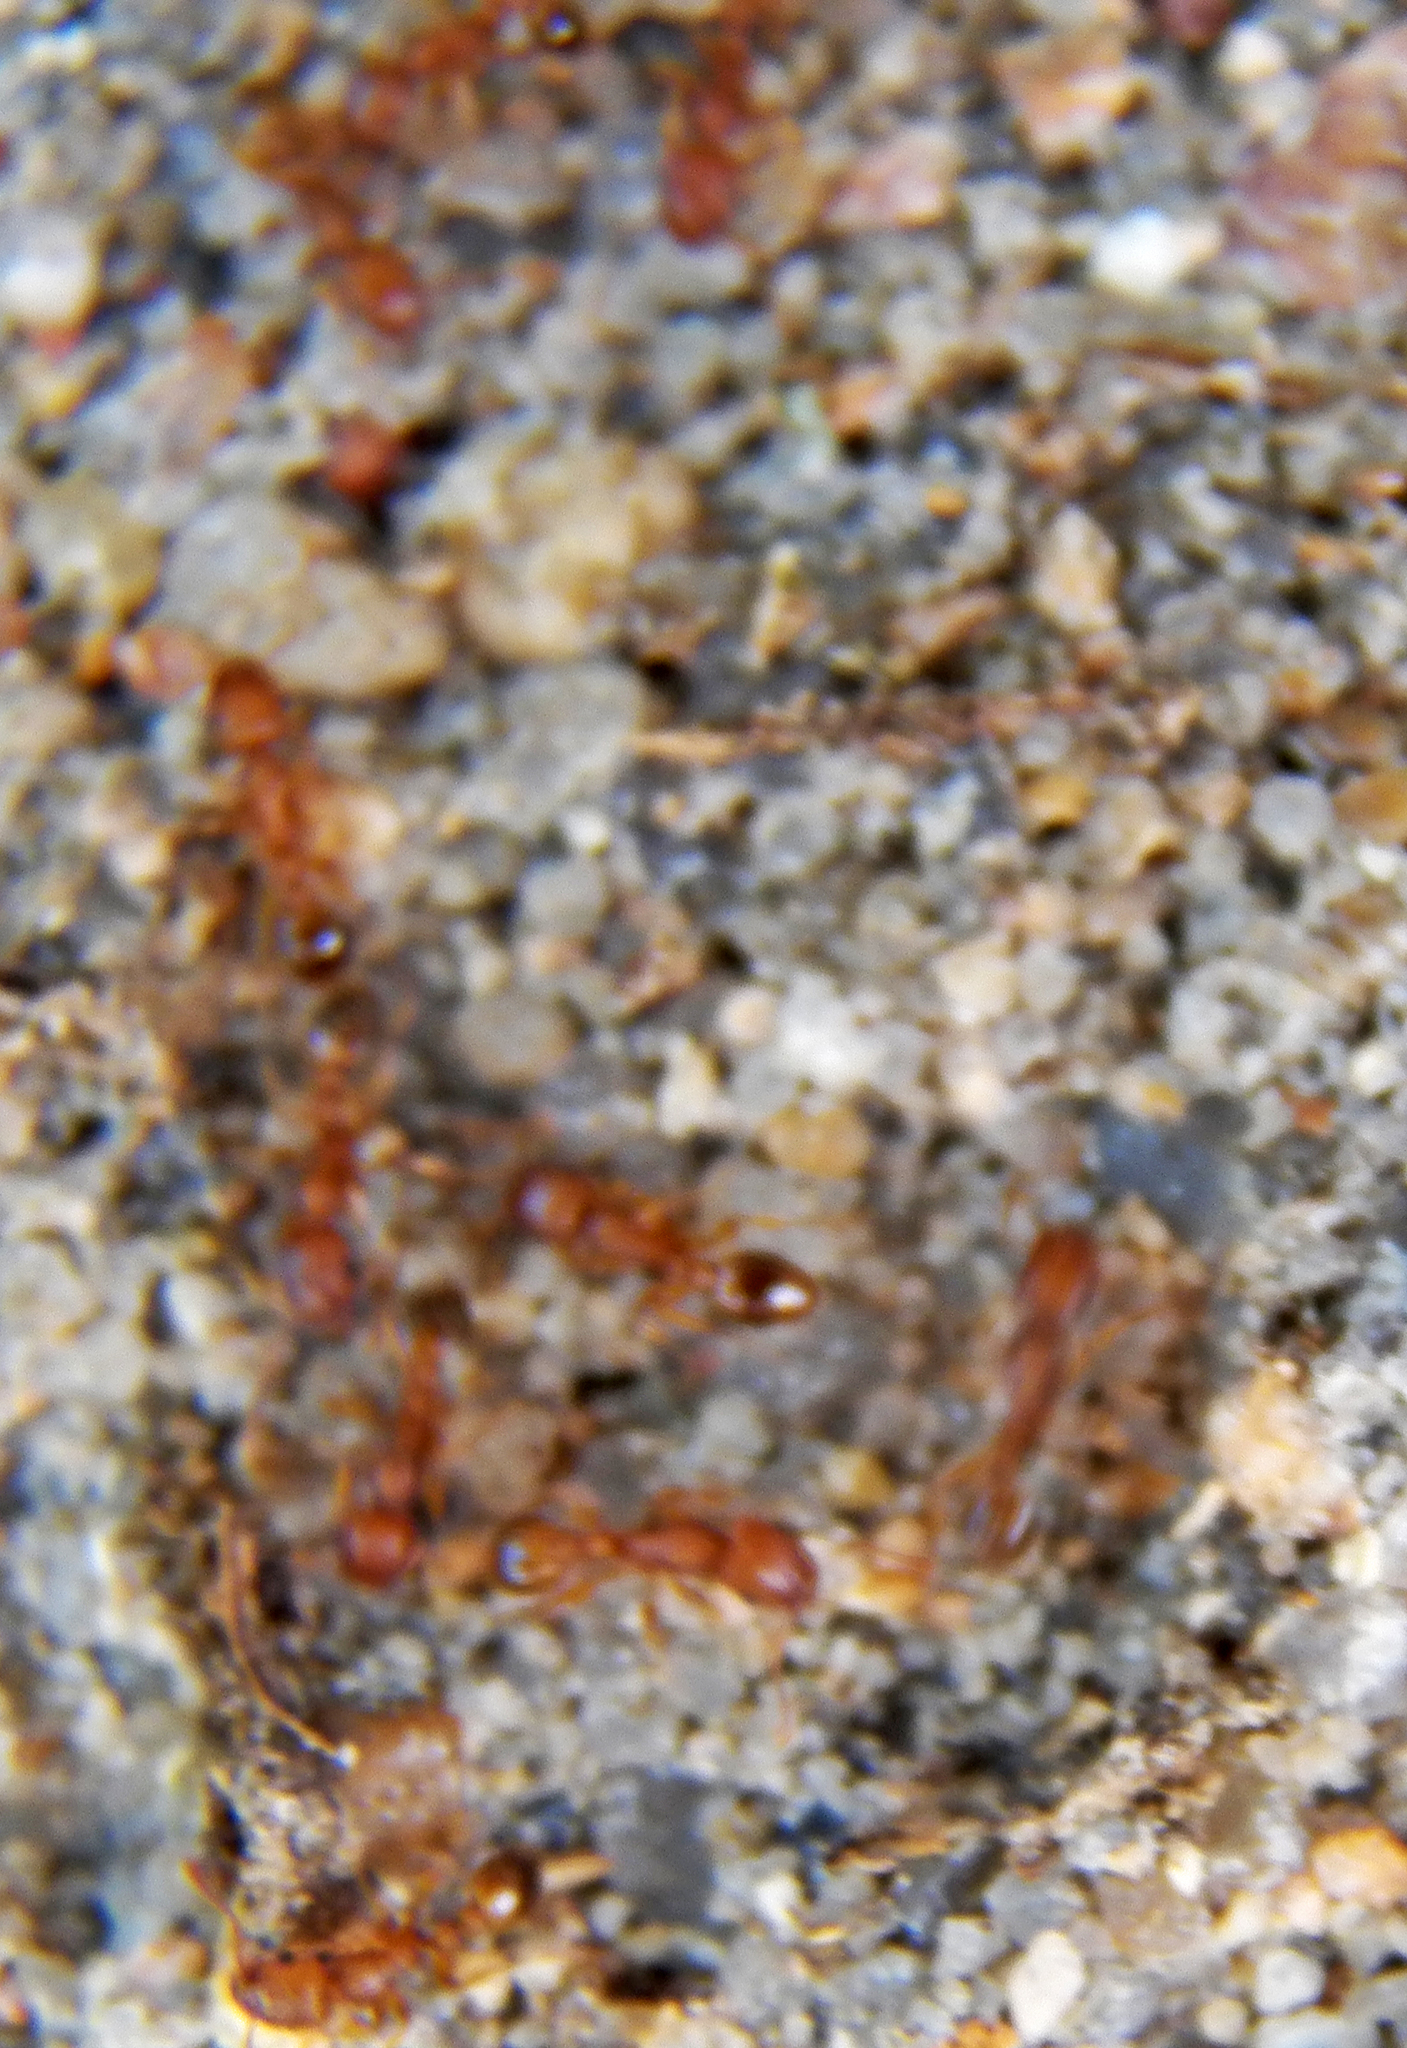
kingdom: Animalia
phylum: Arthropoda
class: Insecta
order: Hymenoptera
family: Formicidae
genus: Tetramorium
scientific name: Tetramorium bicarinatum
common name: Guinea ant
